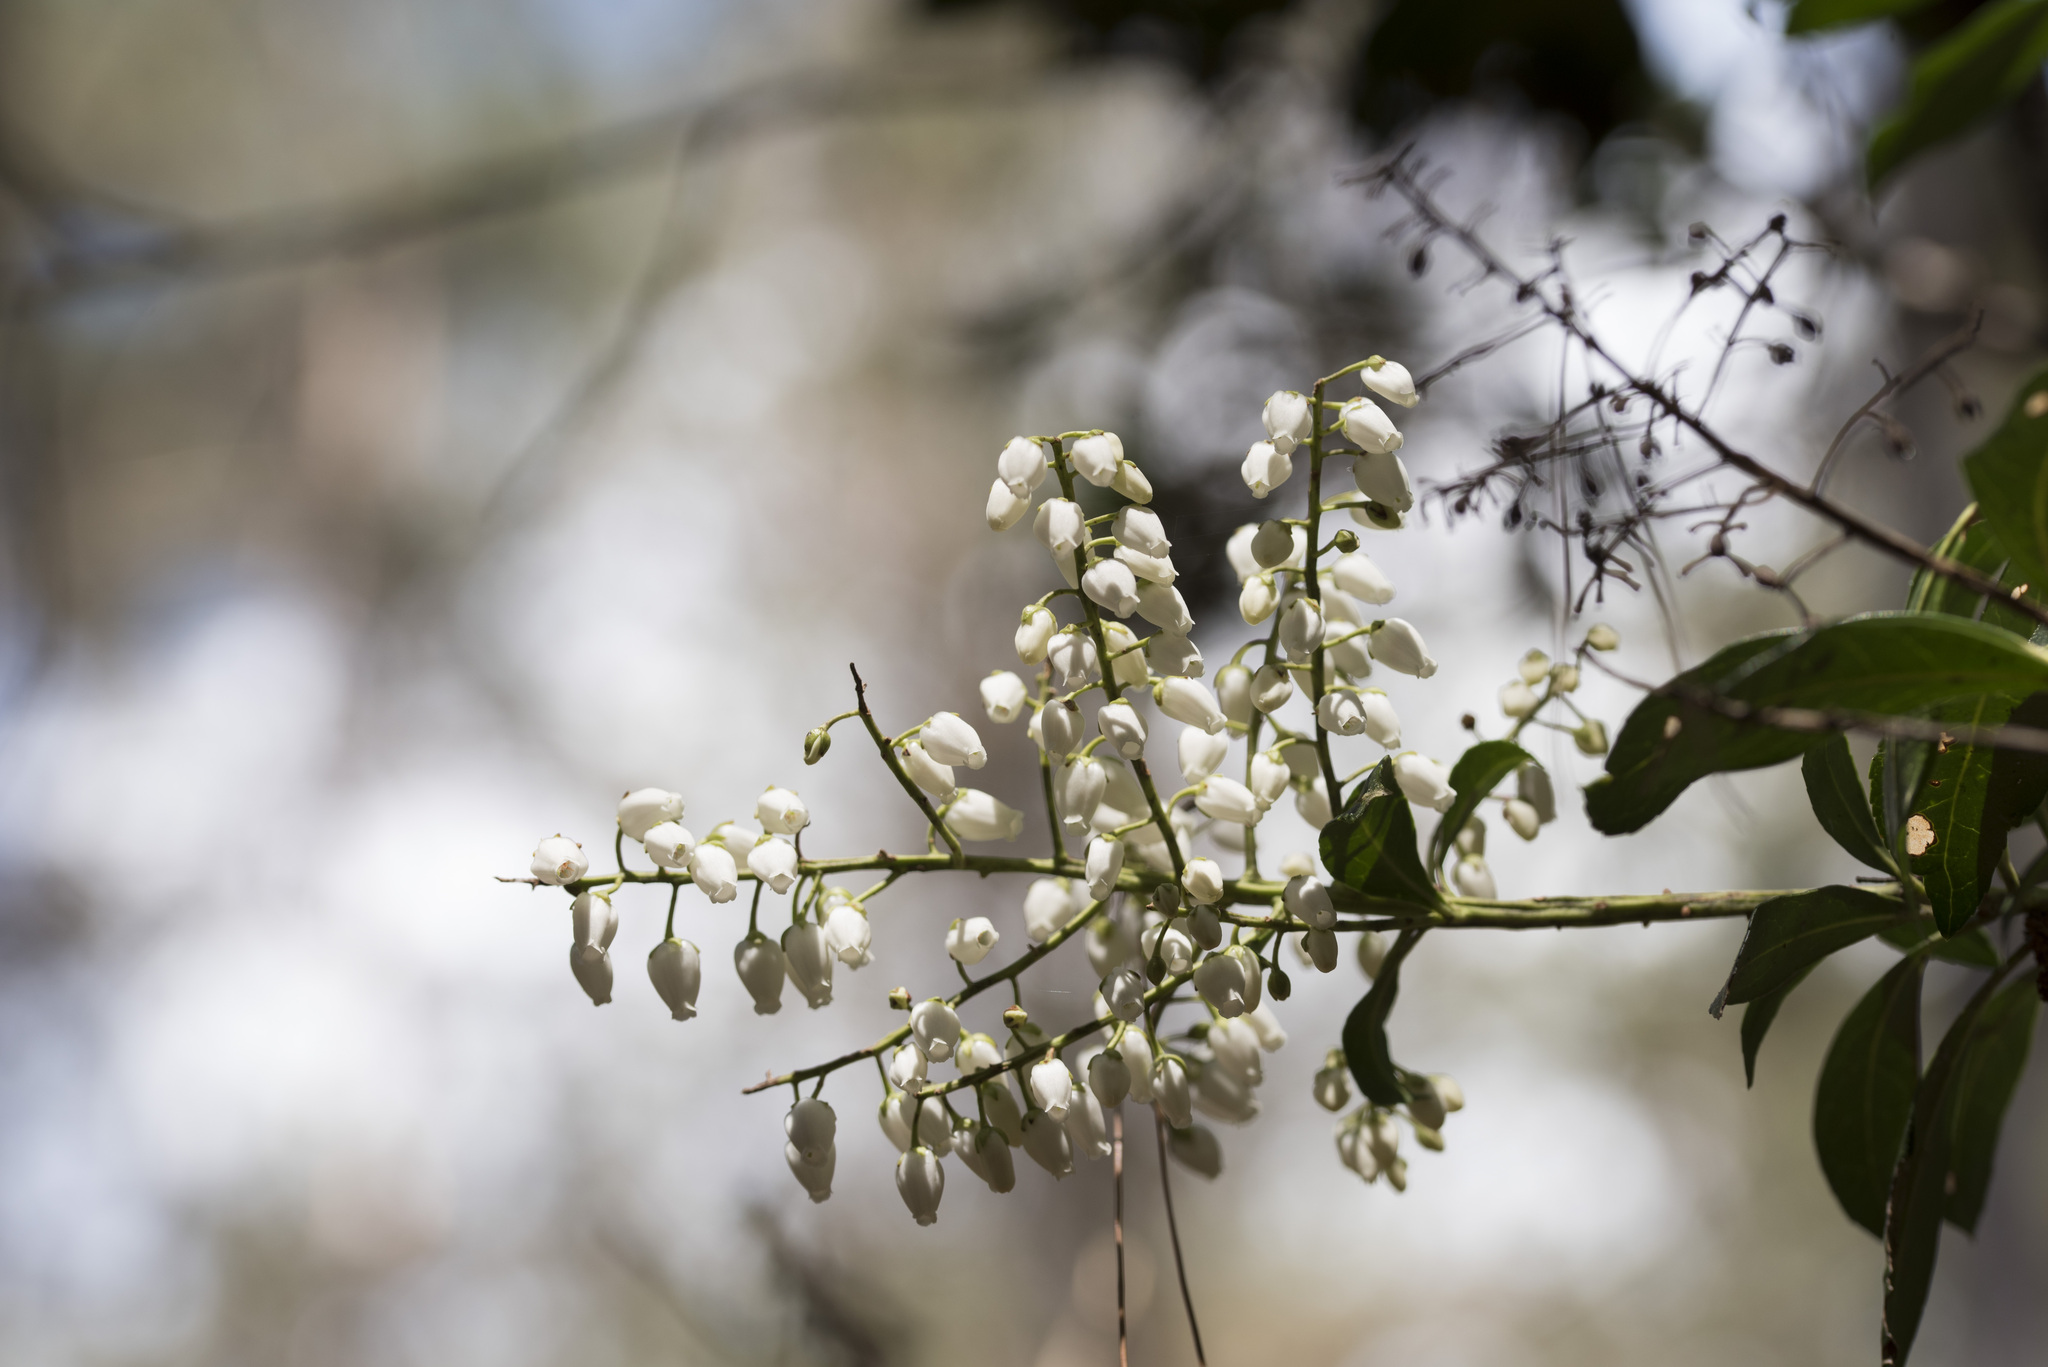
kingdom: Plantae
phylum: Tracheophyta
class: Magnoliopsida
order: Ericales
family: Ericaceae
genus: Pieris
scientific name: Pieris japonica
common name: Japanese pieris
